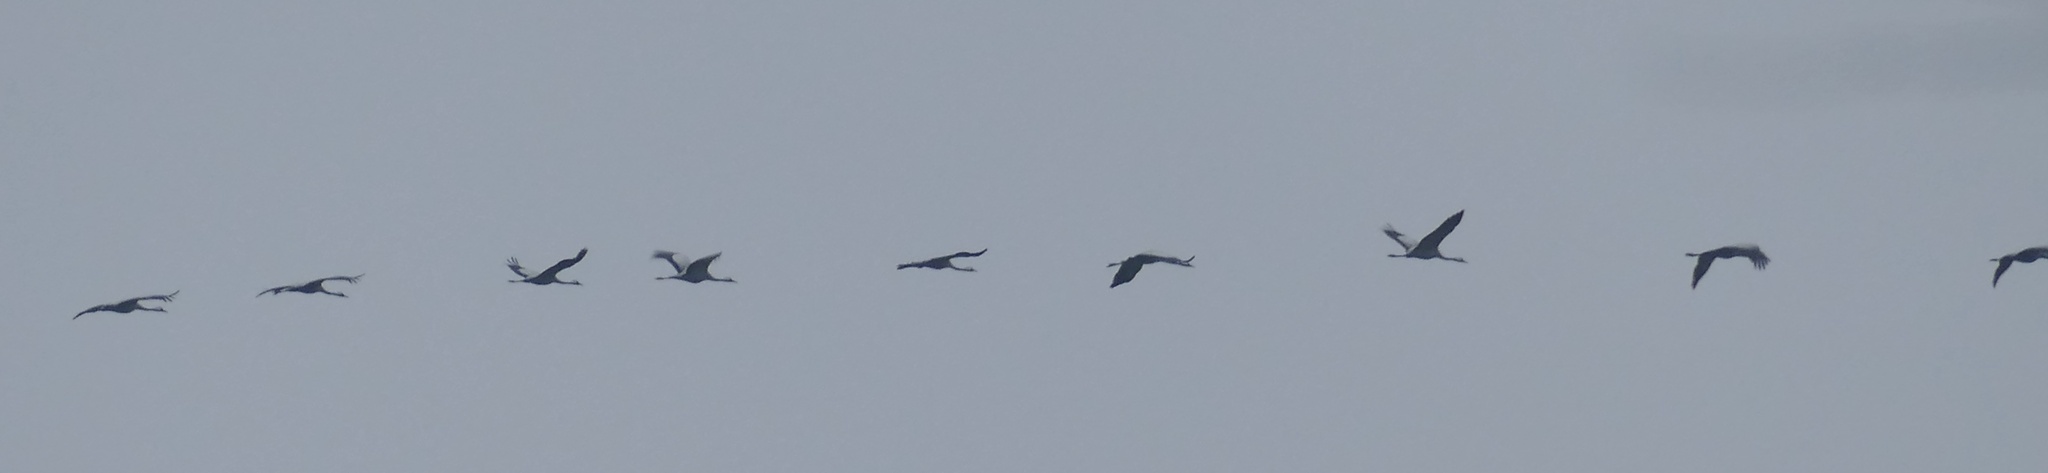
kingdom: Animalia
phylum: Chordata
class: Aves
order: Gruiformes
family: Gruidae
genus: Grus
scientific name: Grus grus
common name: Common crane
